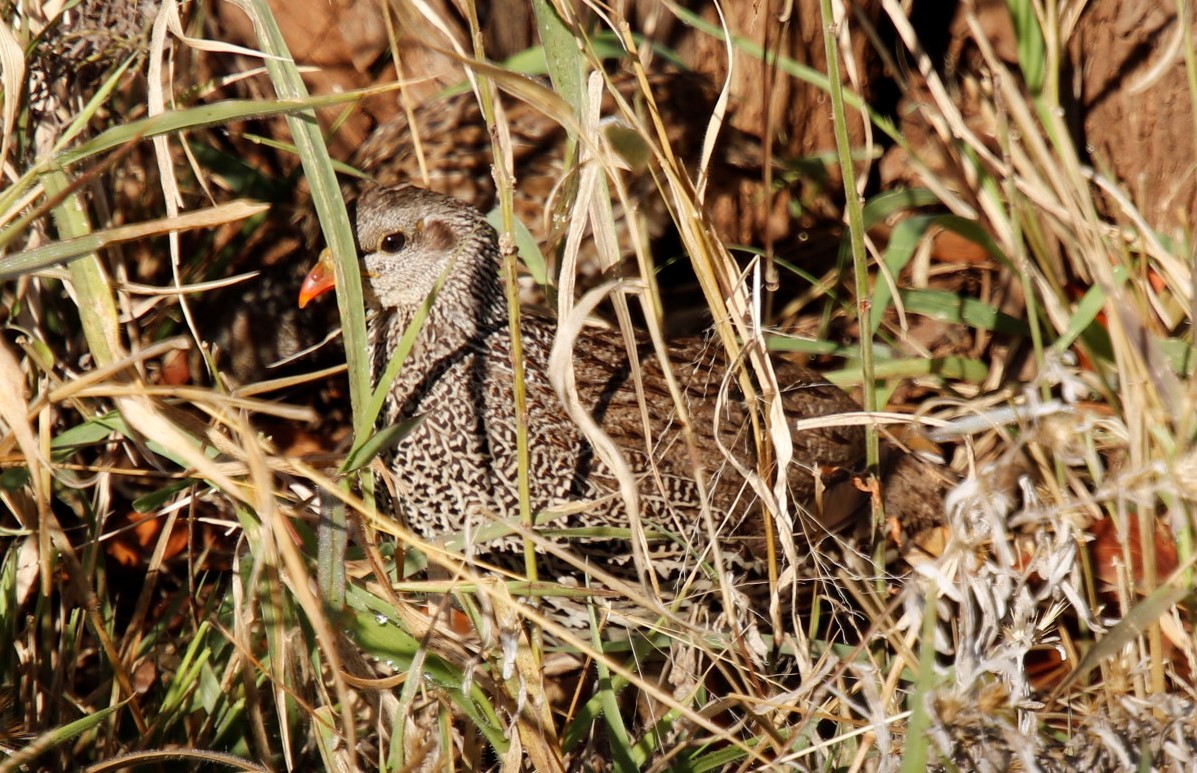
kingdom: Animalia
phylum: Chordata
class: Aves
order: Galliformes
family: Phasianidae
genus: Pternistis
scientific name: Pternistis natalensis
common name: Natal spurfowl
